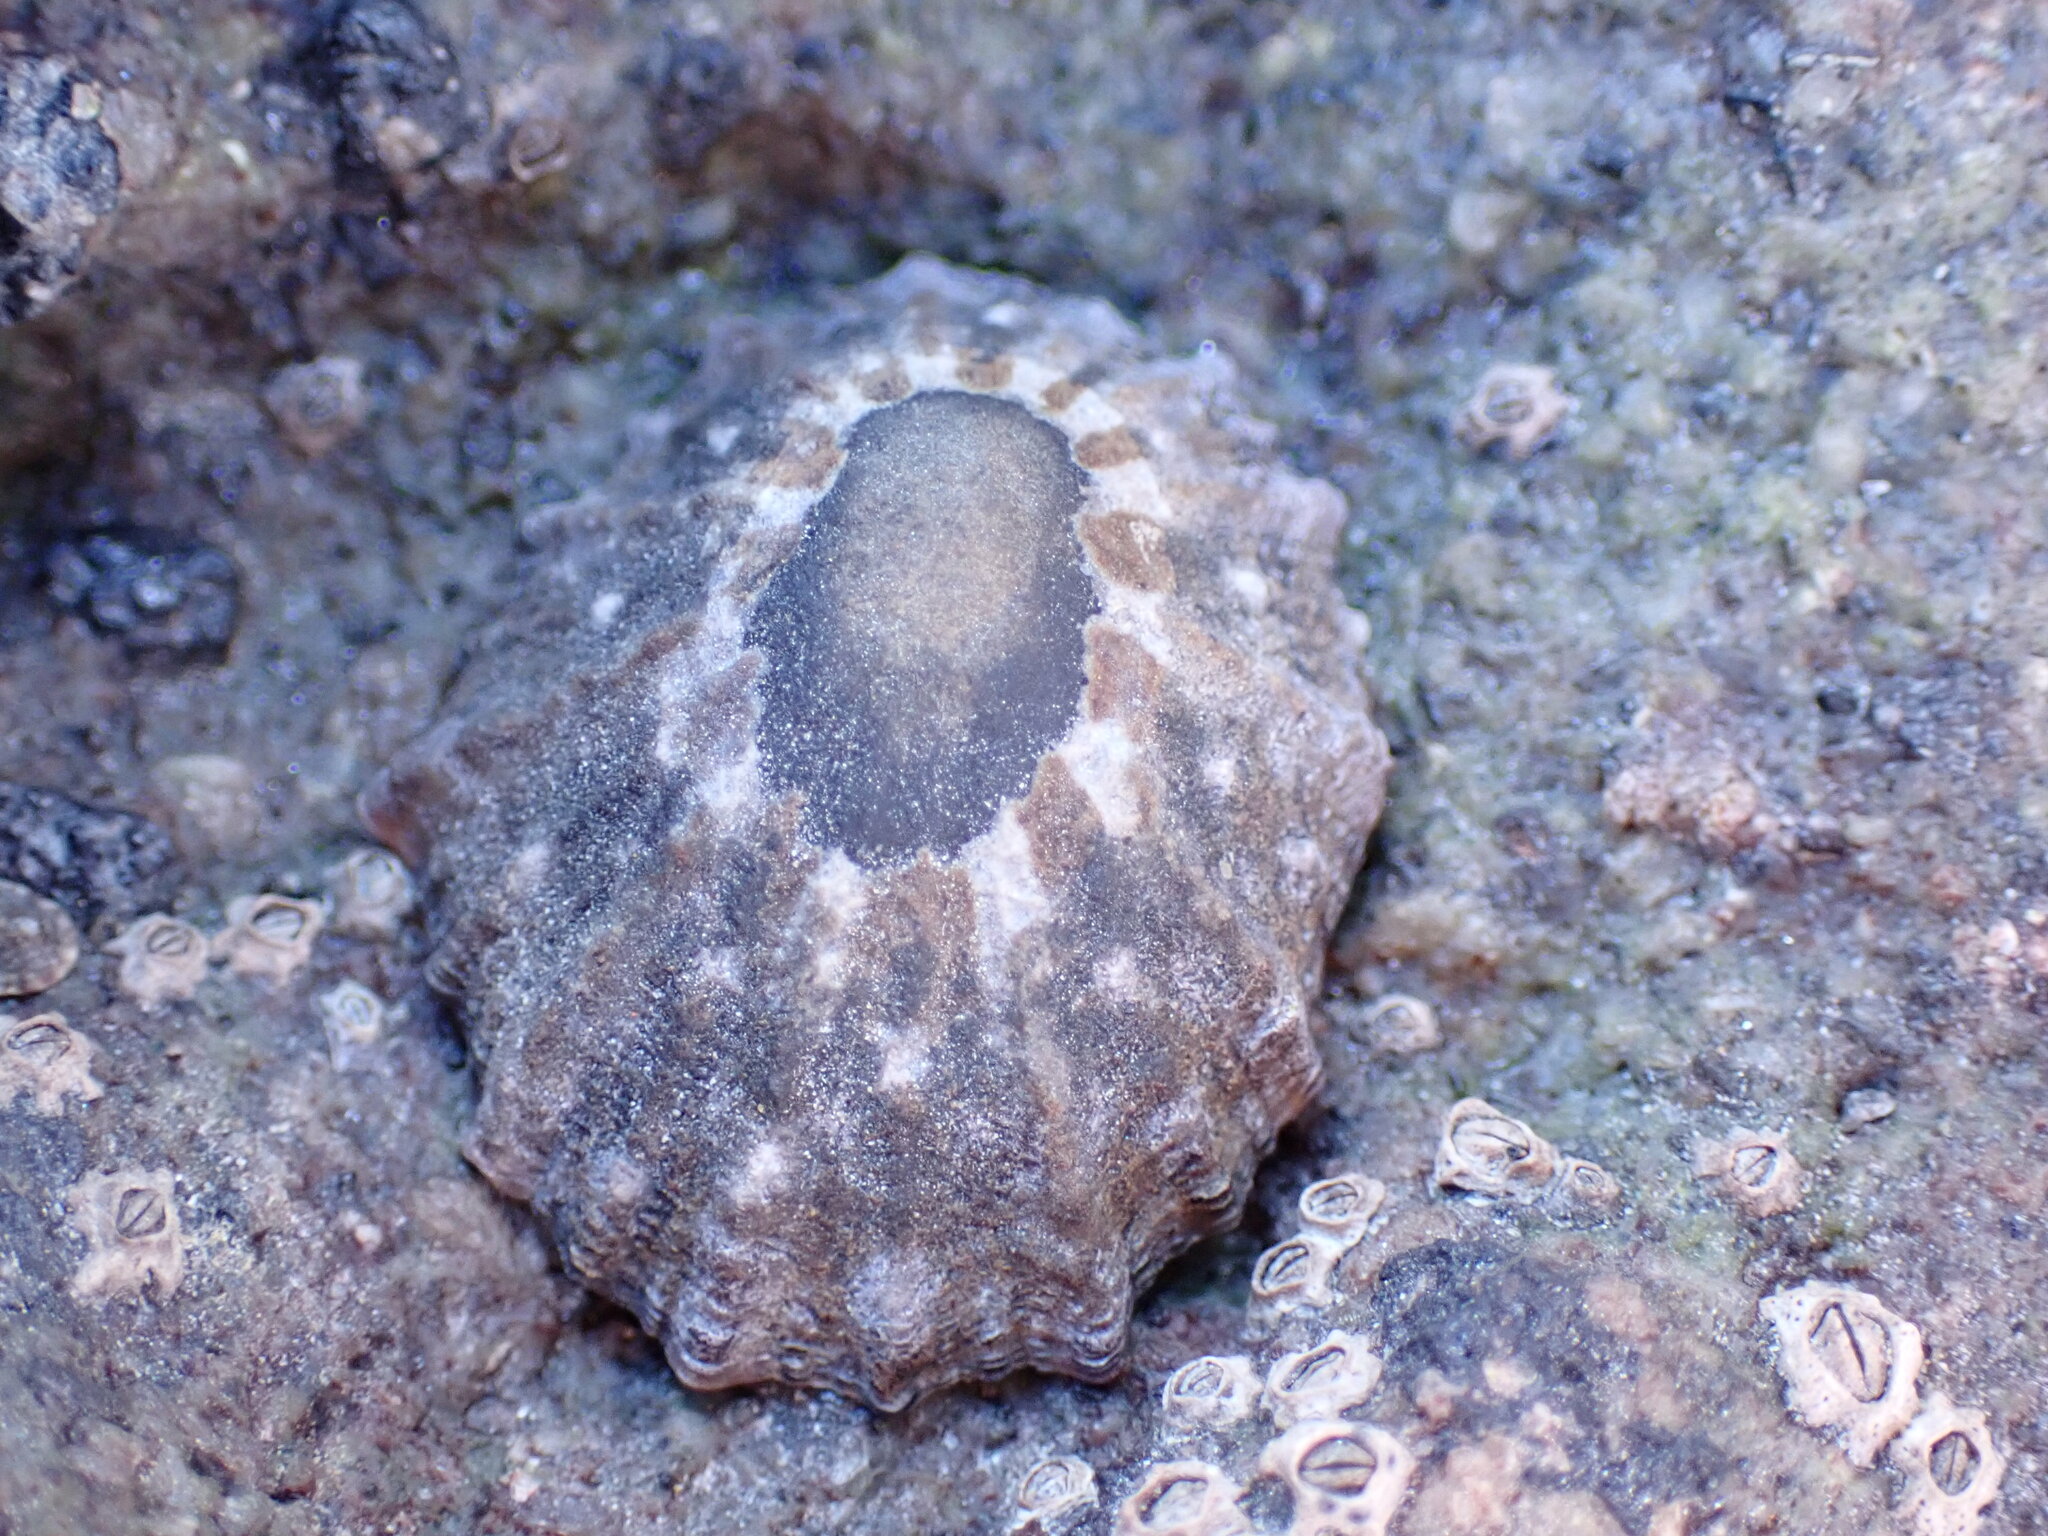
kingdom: Animalia
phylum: Mollusca
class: Gastropoda
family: Nacellidae
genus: Cellana
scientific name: Cellana ornata
